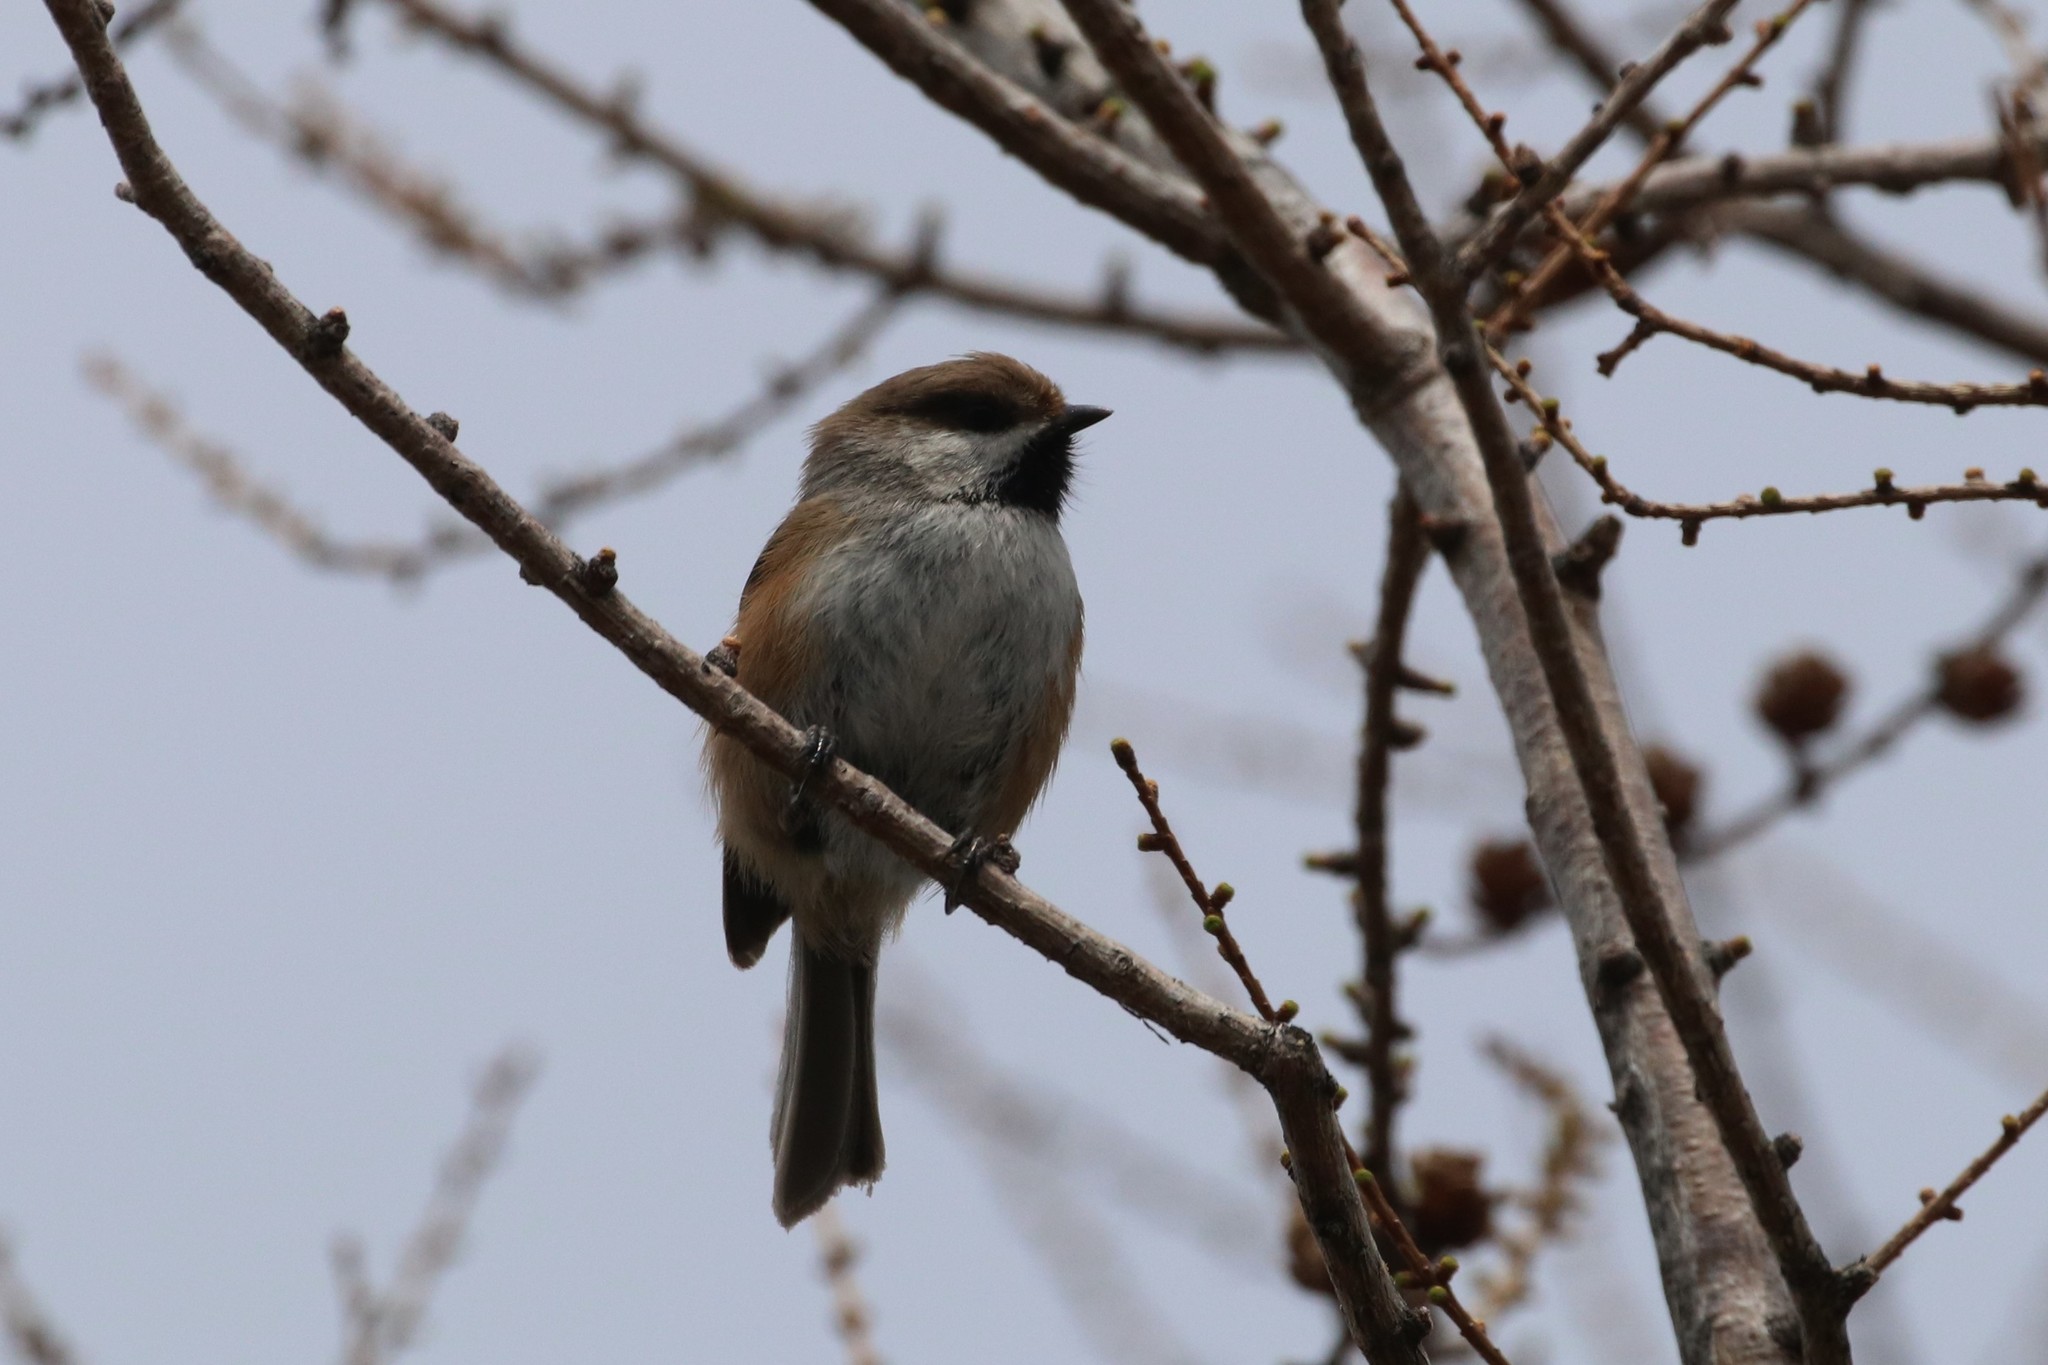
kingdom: Animalia
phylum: Chordata
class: Aves
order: Passeriformes
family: Paridae
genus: Poecile
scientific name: Poecile hudsonicus
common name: Boreal chickadee
